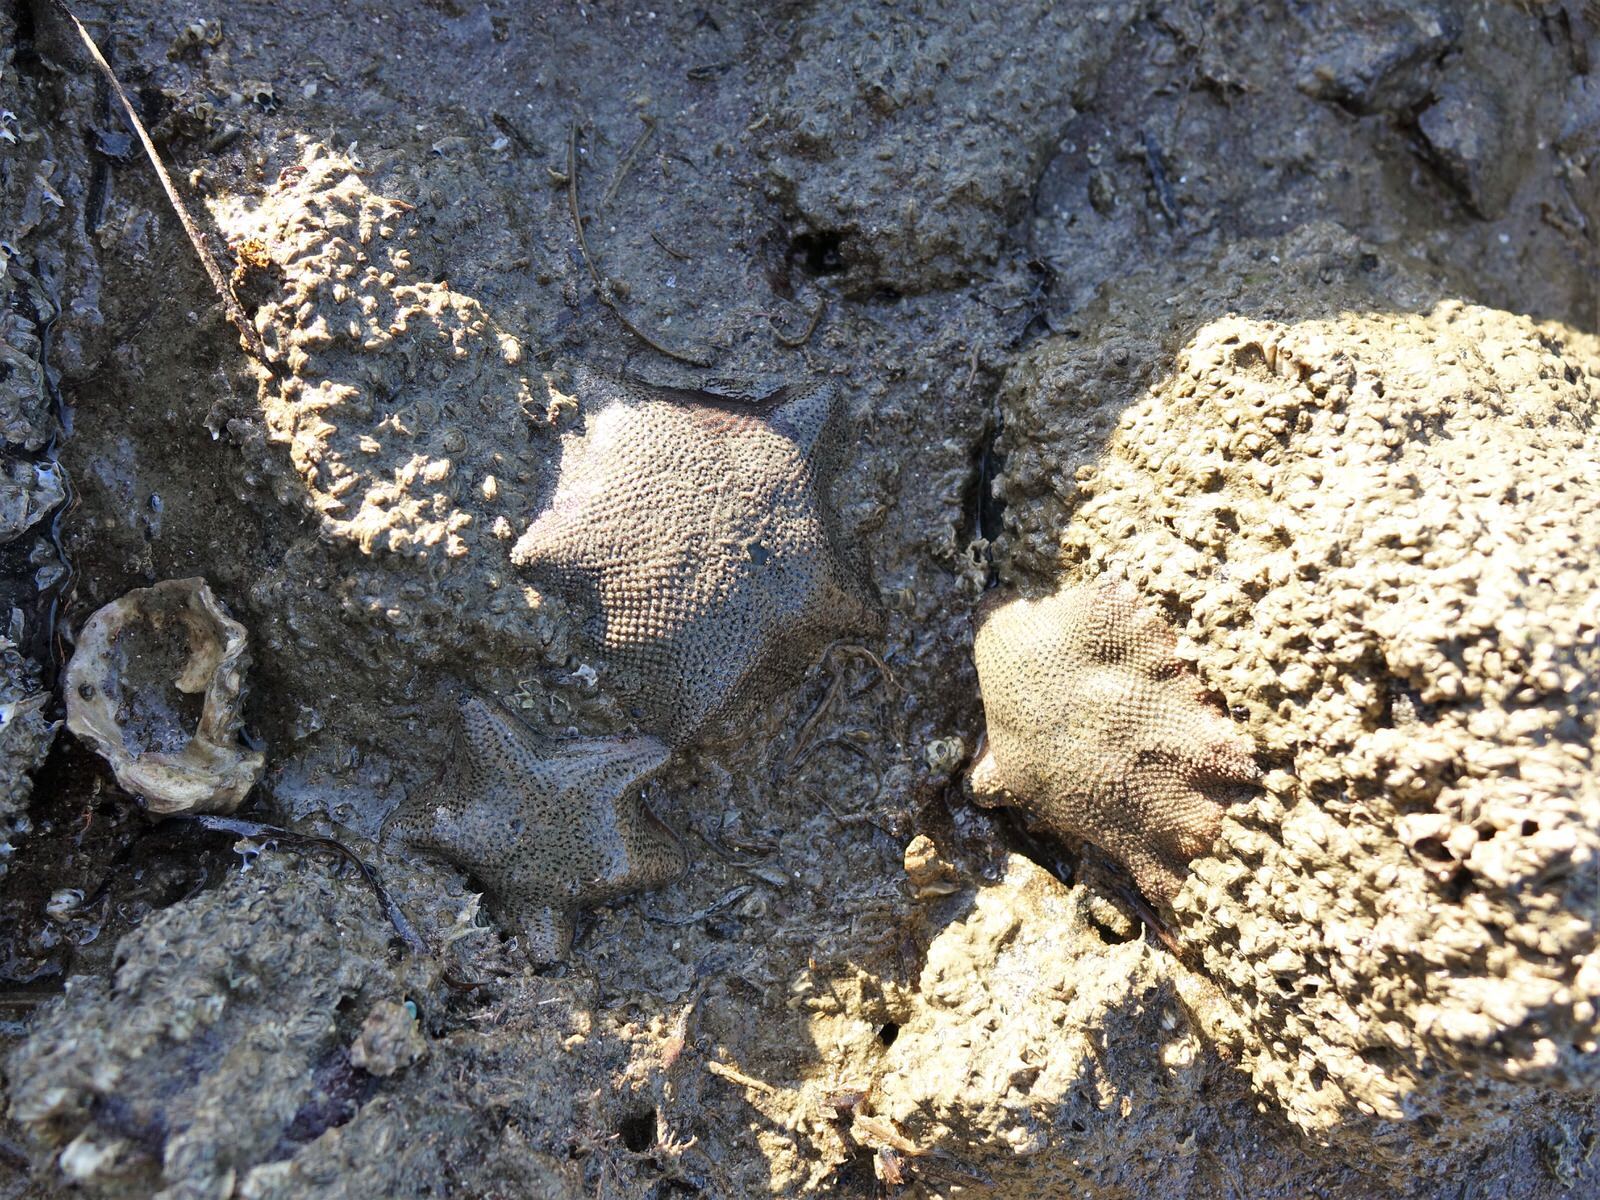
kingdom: Animalia
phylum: Echinodermata
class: Asteroidea
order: Valvatida
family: Asterinidae
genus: Patiriella
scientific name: Patiriella regularis
